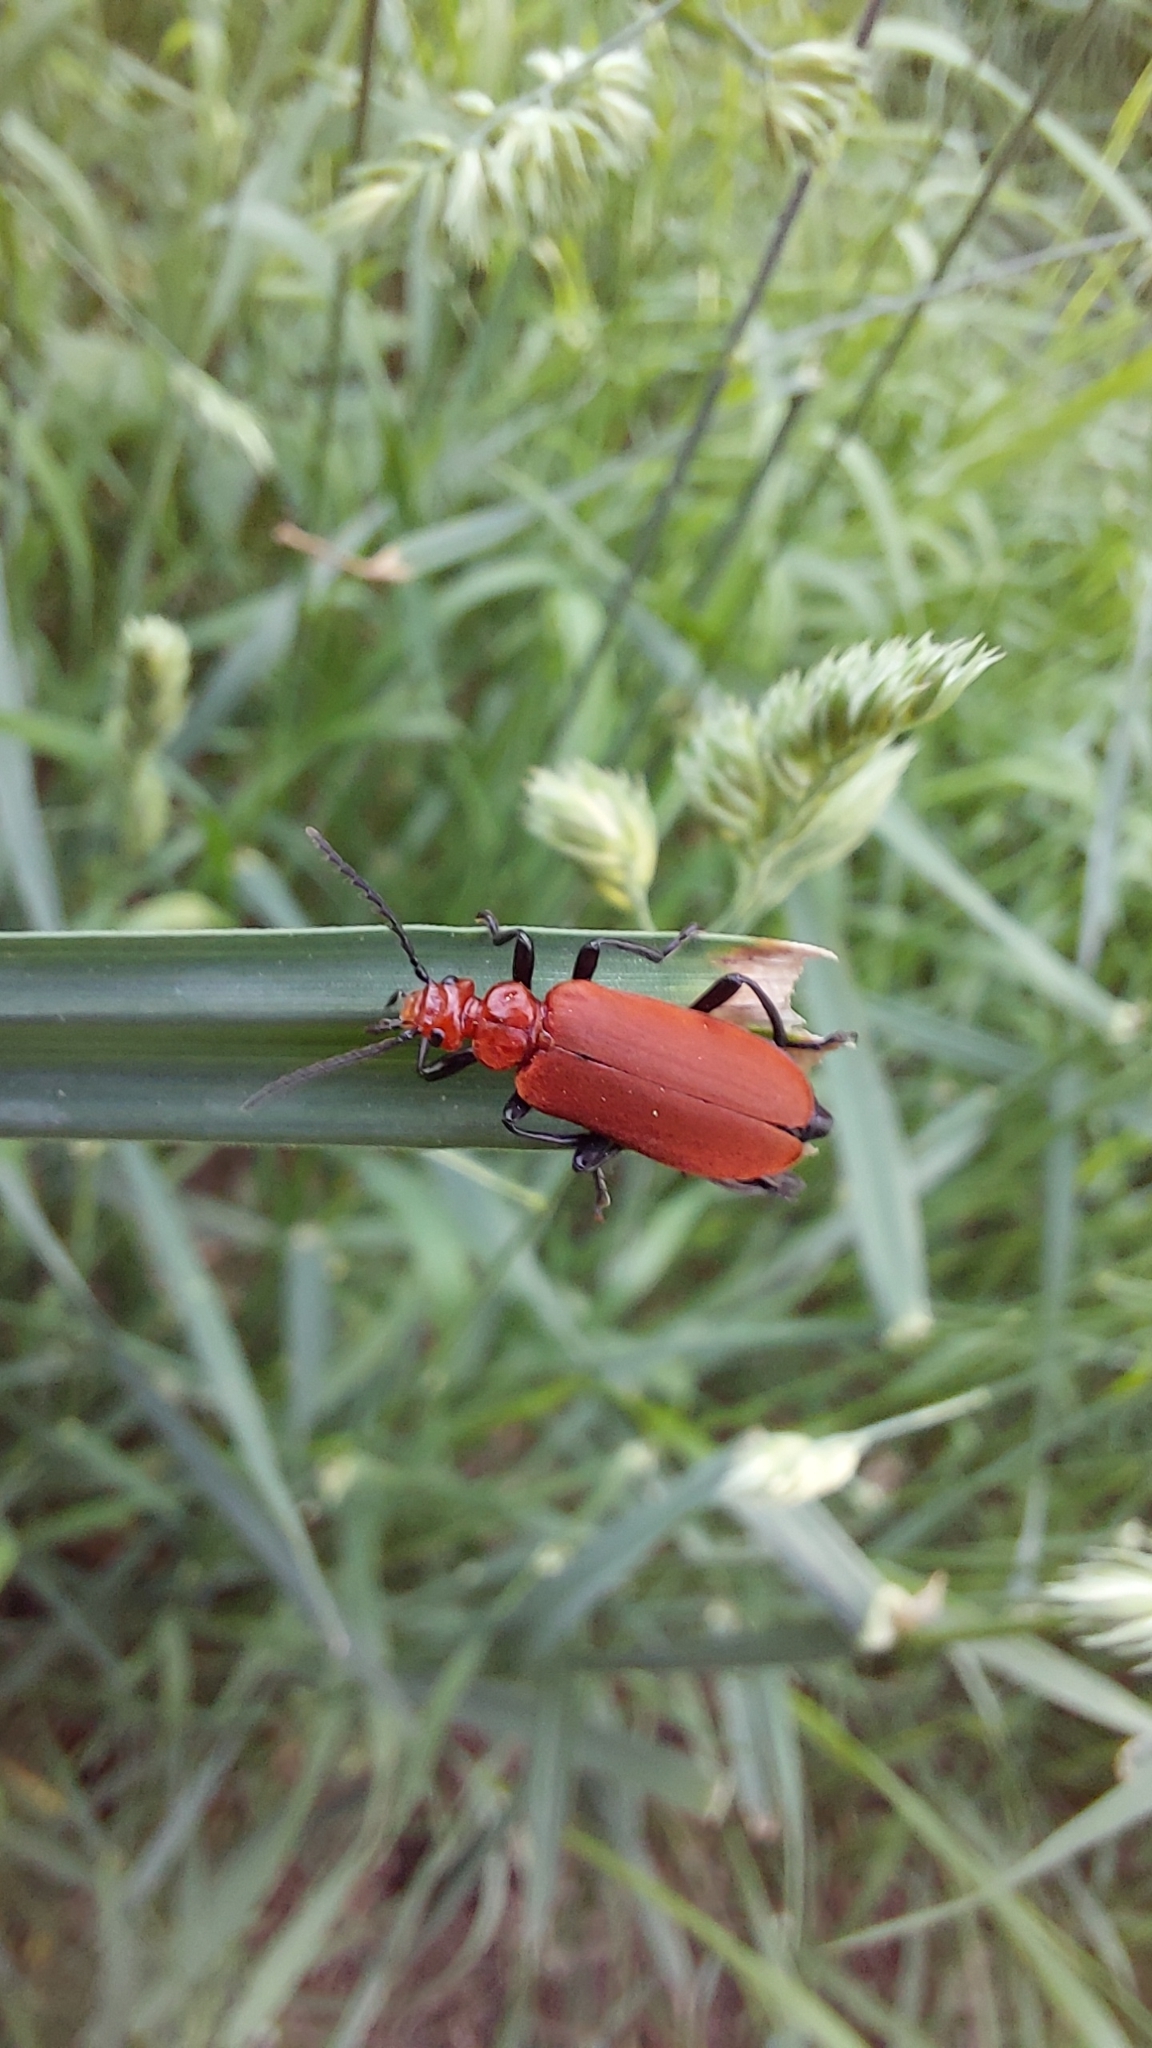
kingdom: Animalia
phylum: Arthropoda
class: Insecta
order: Coleoptera
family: Pyrochroidae
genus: Pyrochroa
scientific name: Pyrochroa serraticornis
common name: Red-headed cardinal beetle
